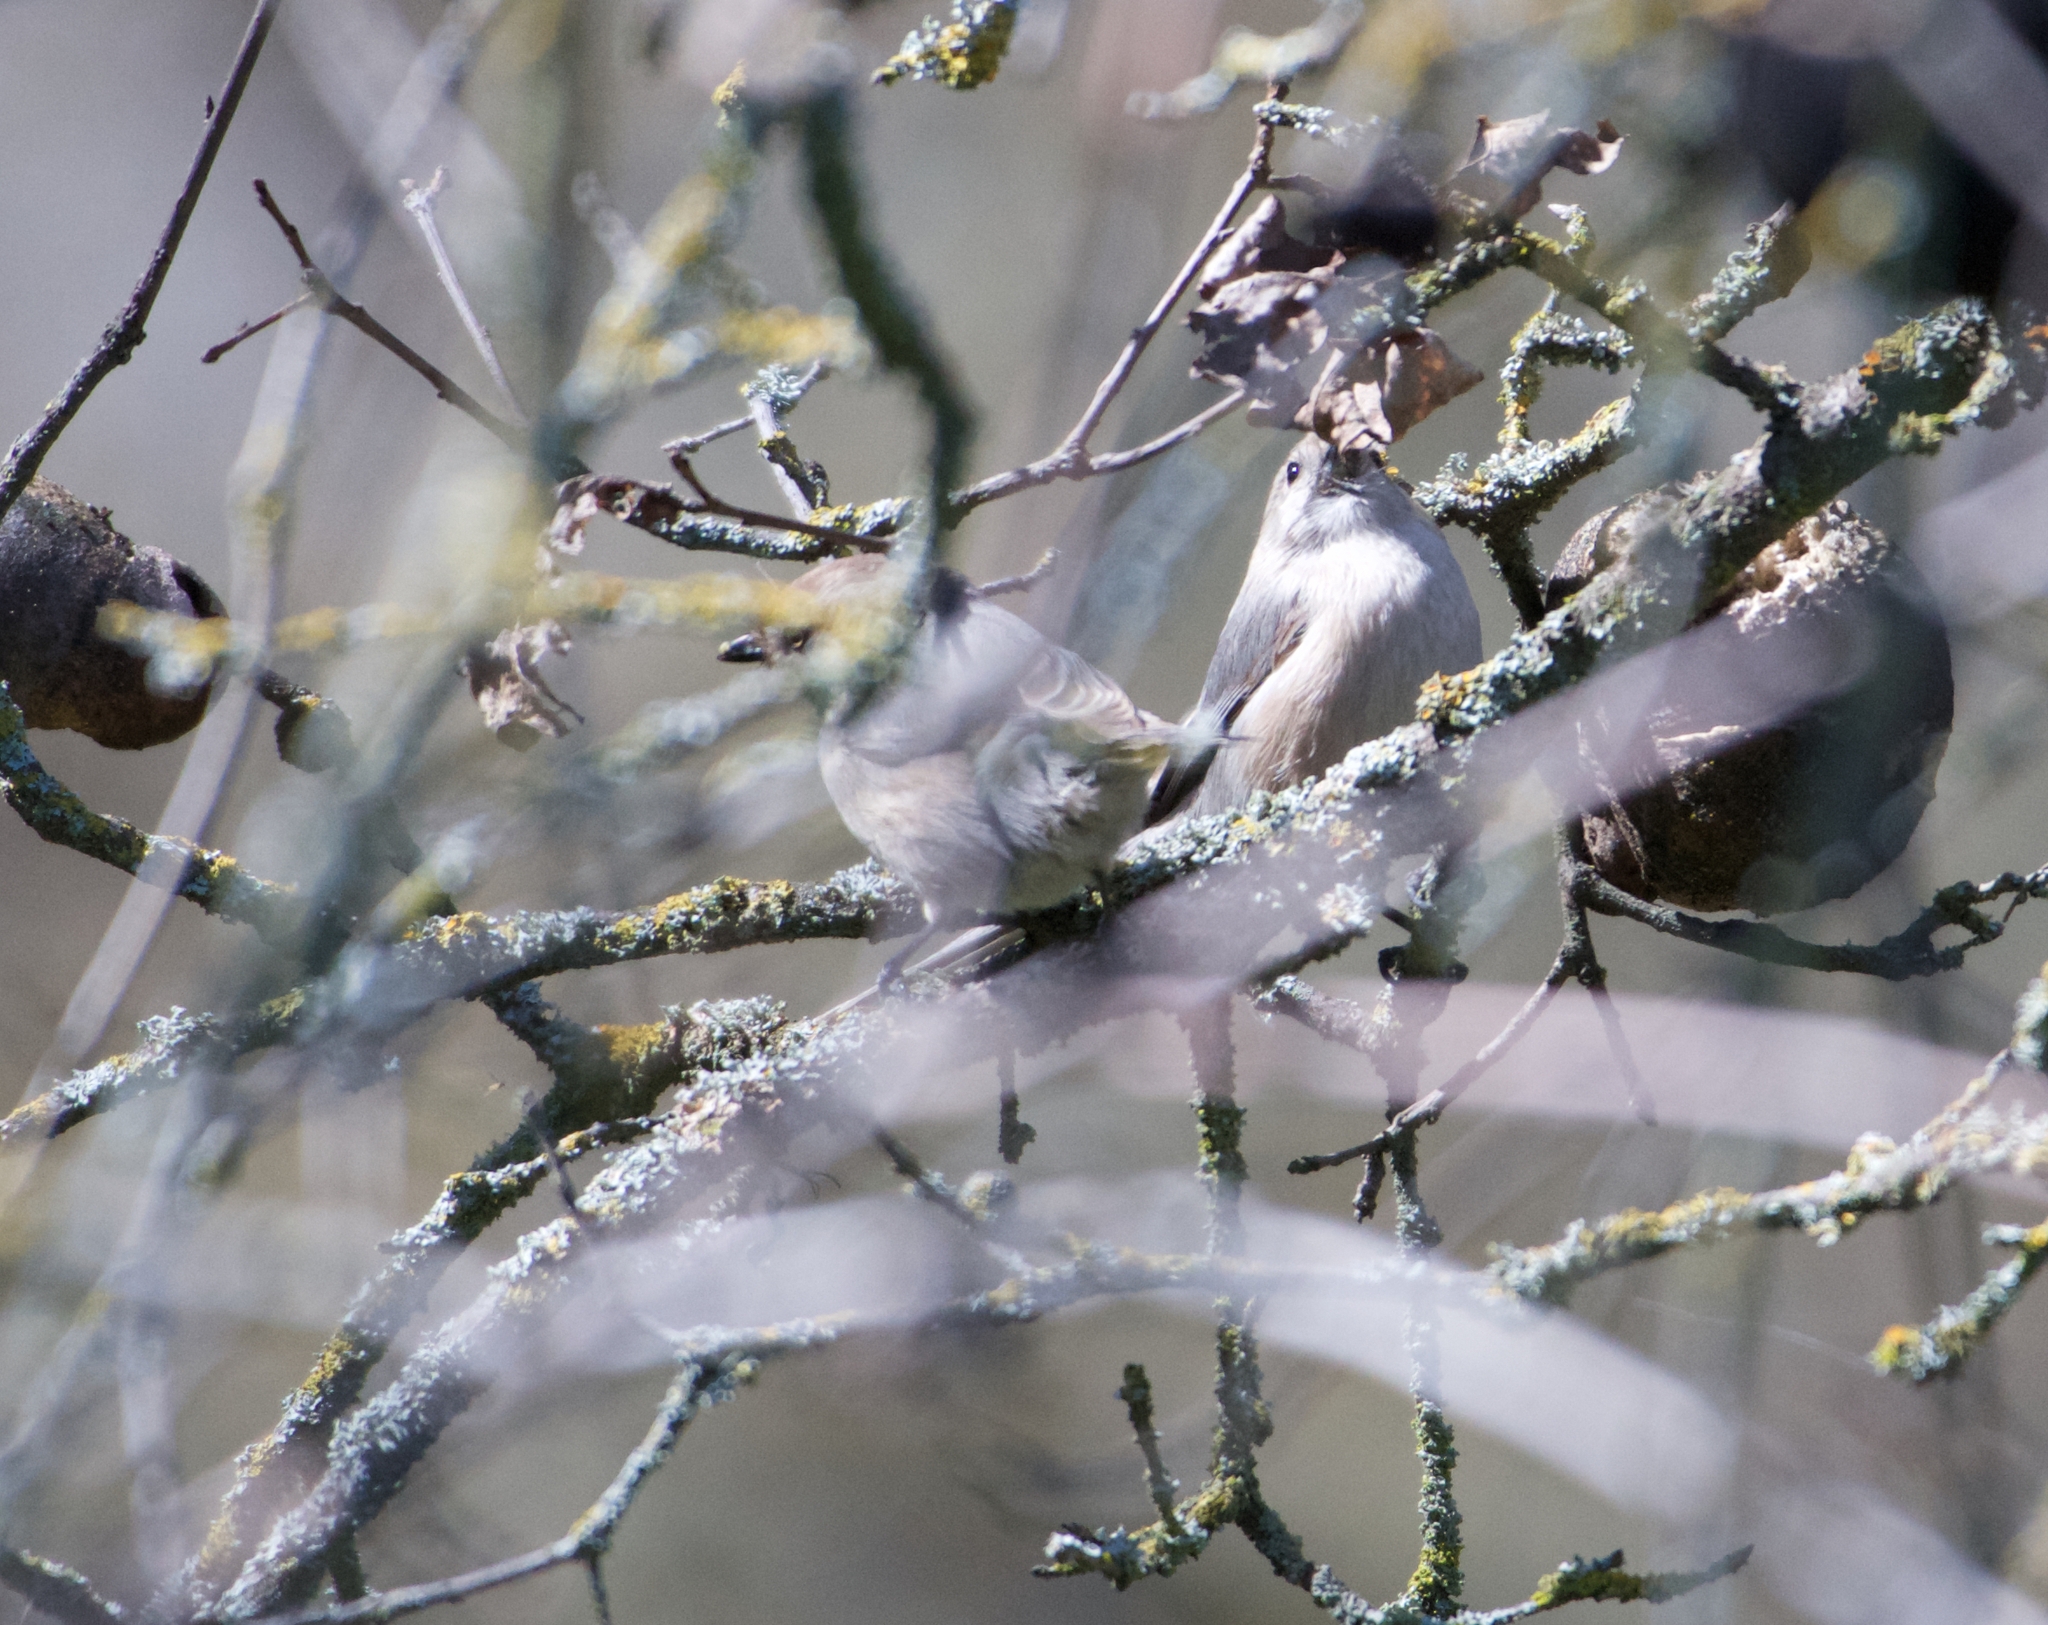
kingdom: Animalia
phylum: Chordata
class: Aves
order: Passeriformes
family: Aegithalidae
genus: Psaltriparus
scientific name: Psaltriparus minimus
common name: American bushtit
